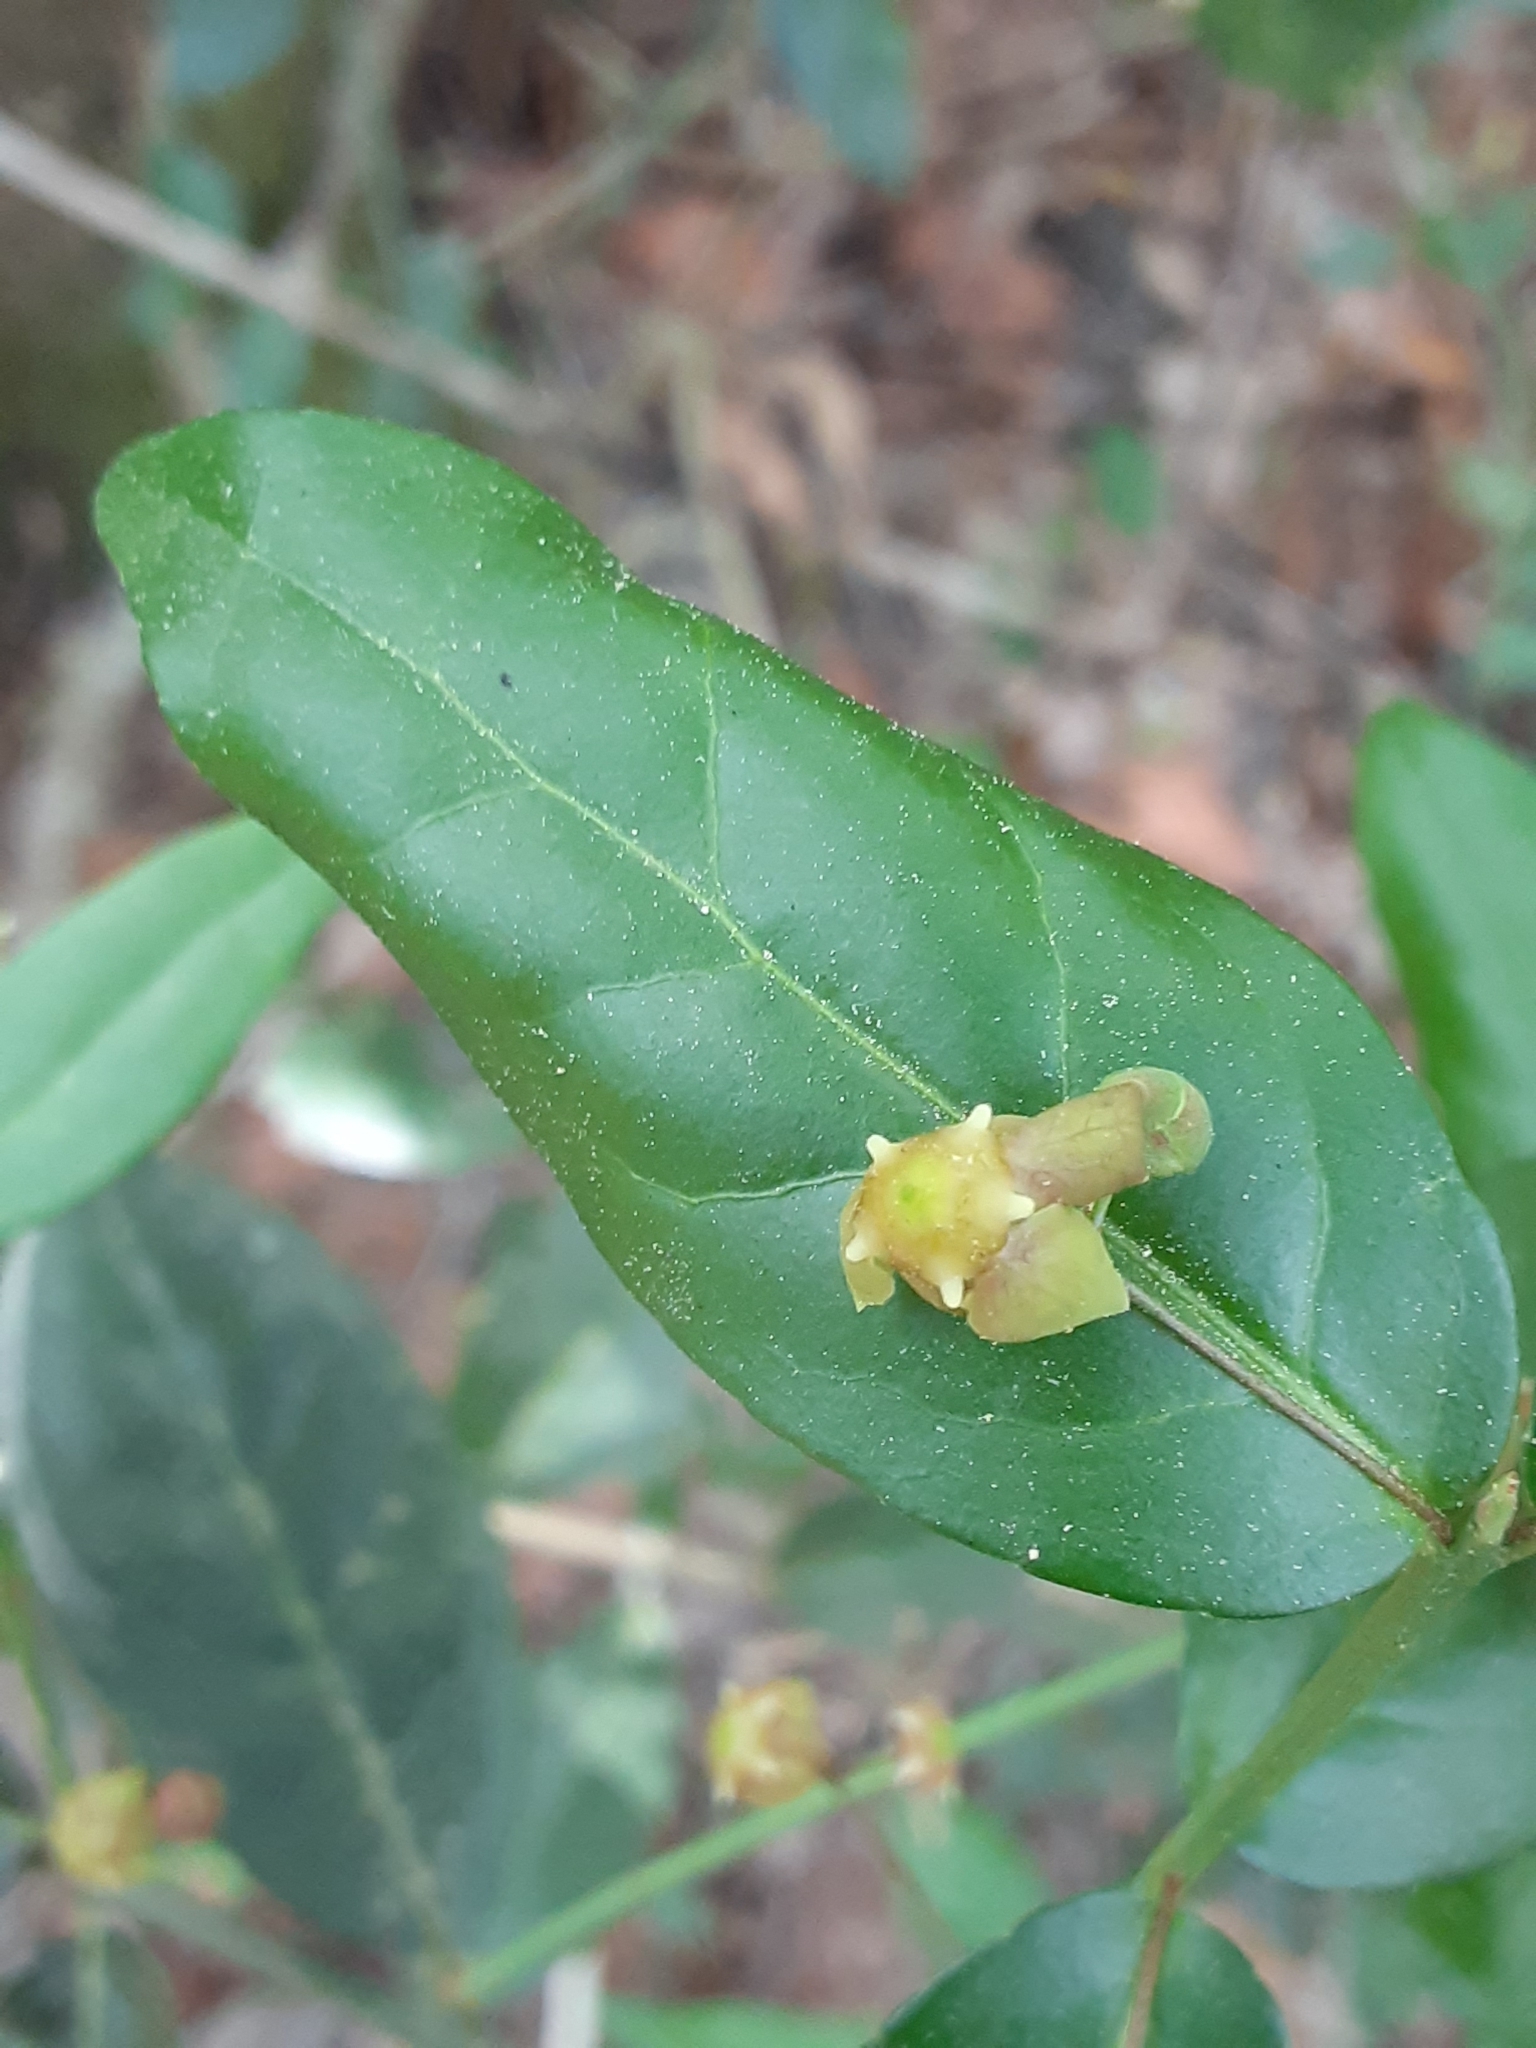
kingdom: Plantae
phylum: Tracheophyta
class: Magnoliopsida
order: Celastrales
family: Celastraceae
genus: Euonymus
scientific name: Euonymus americanus
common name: Bursting-heart
